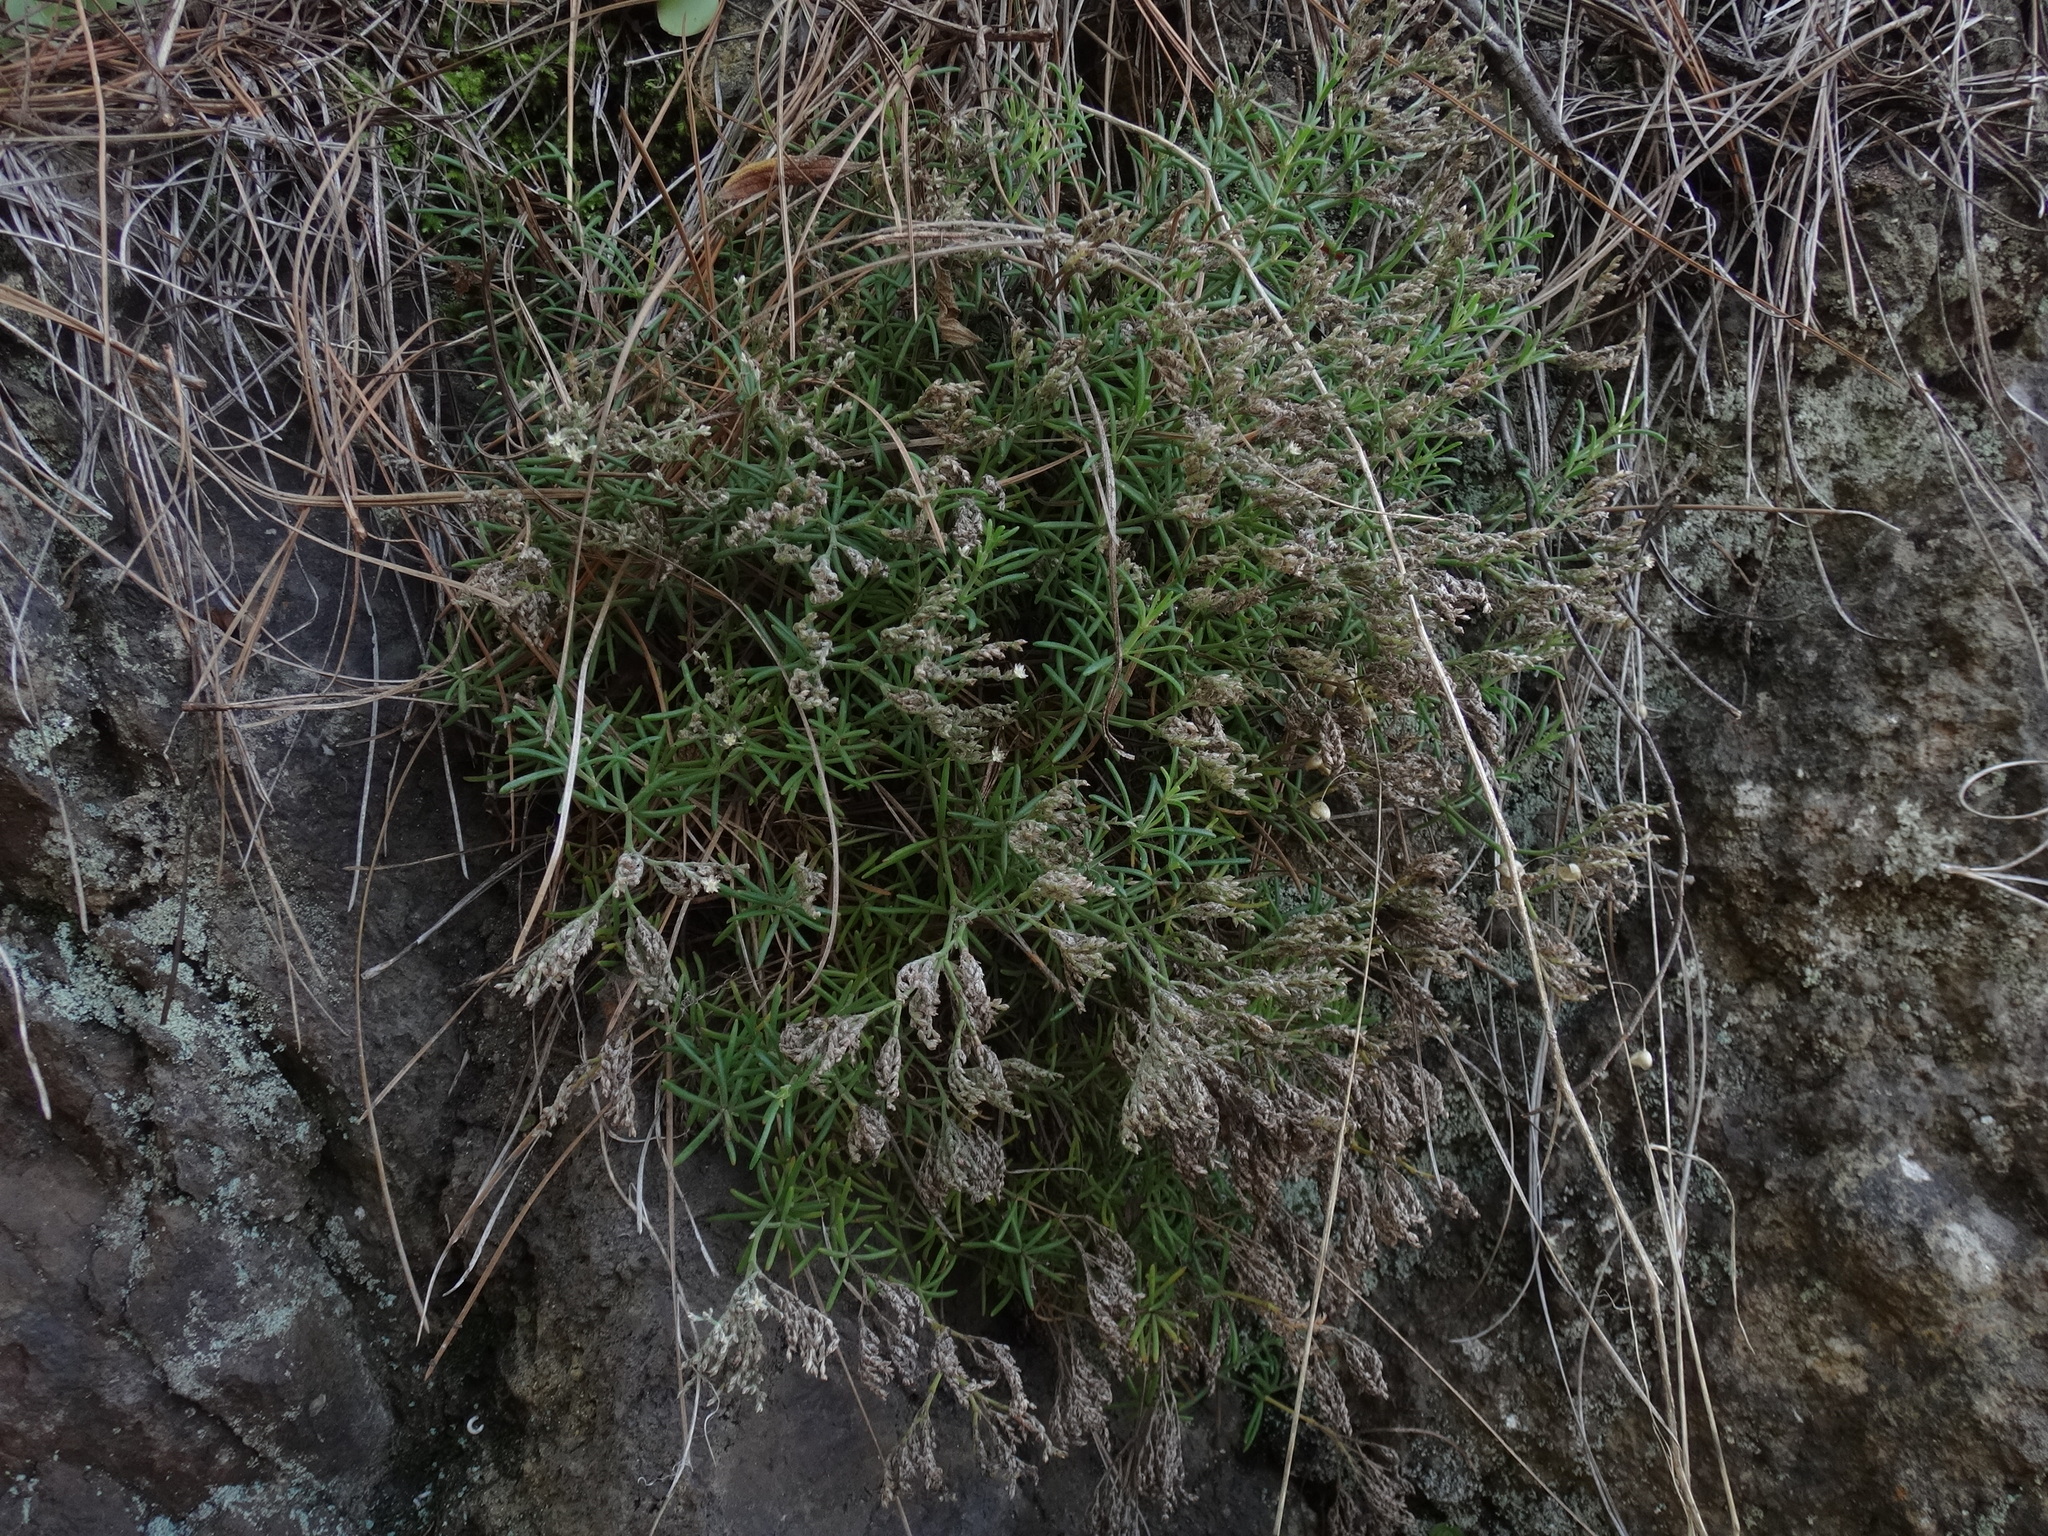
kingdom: Plantae
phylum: Tracheophyta
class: Magnoliopsida
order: Caryophyllales
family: Caryophyllaceae
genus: Polycarpaea
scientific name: Polycarpaea smithii
